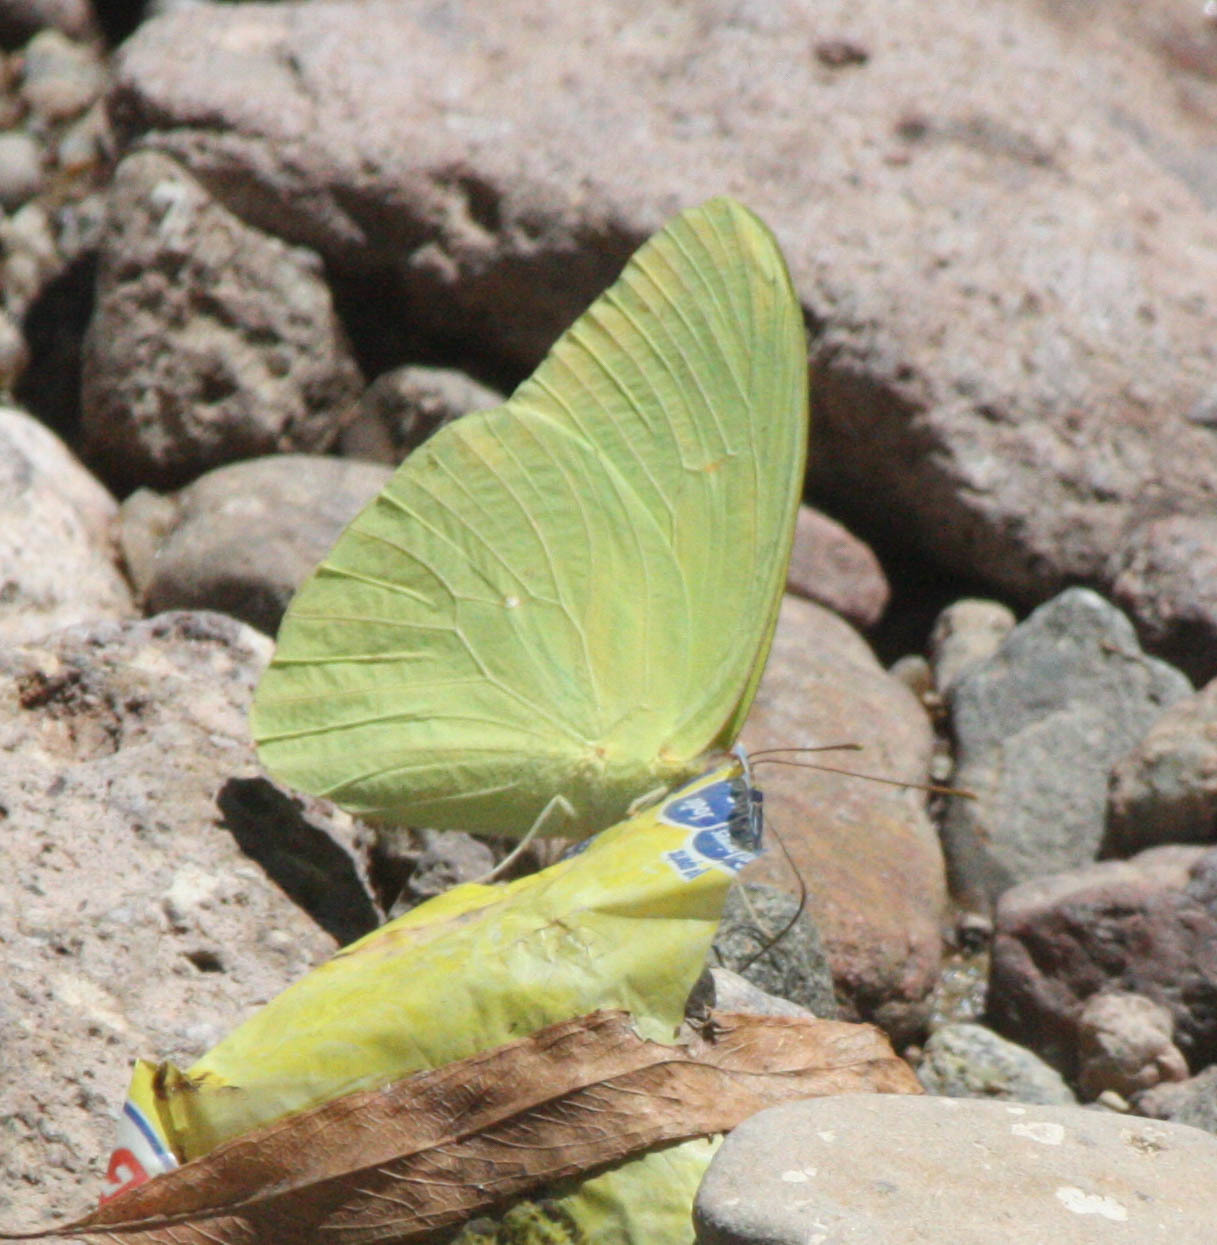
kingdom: Animalia
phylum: Arthropoda
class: Insecta
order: Lepidoptera
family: Pieridae
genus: Phoebis
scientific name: Phoebis sennae
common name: Cloudless sulphur
